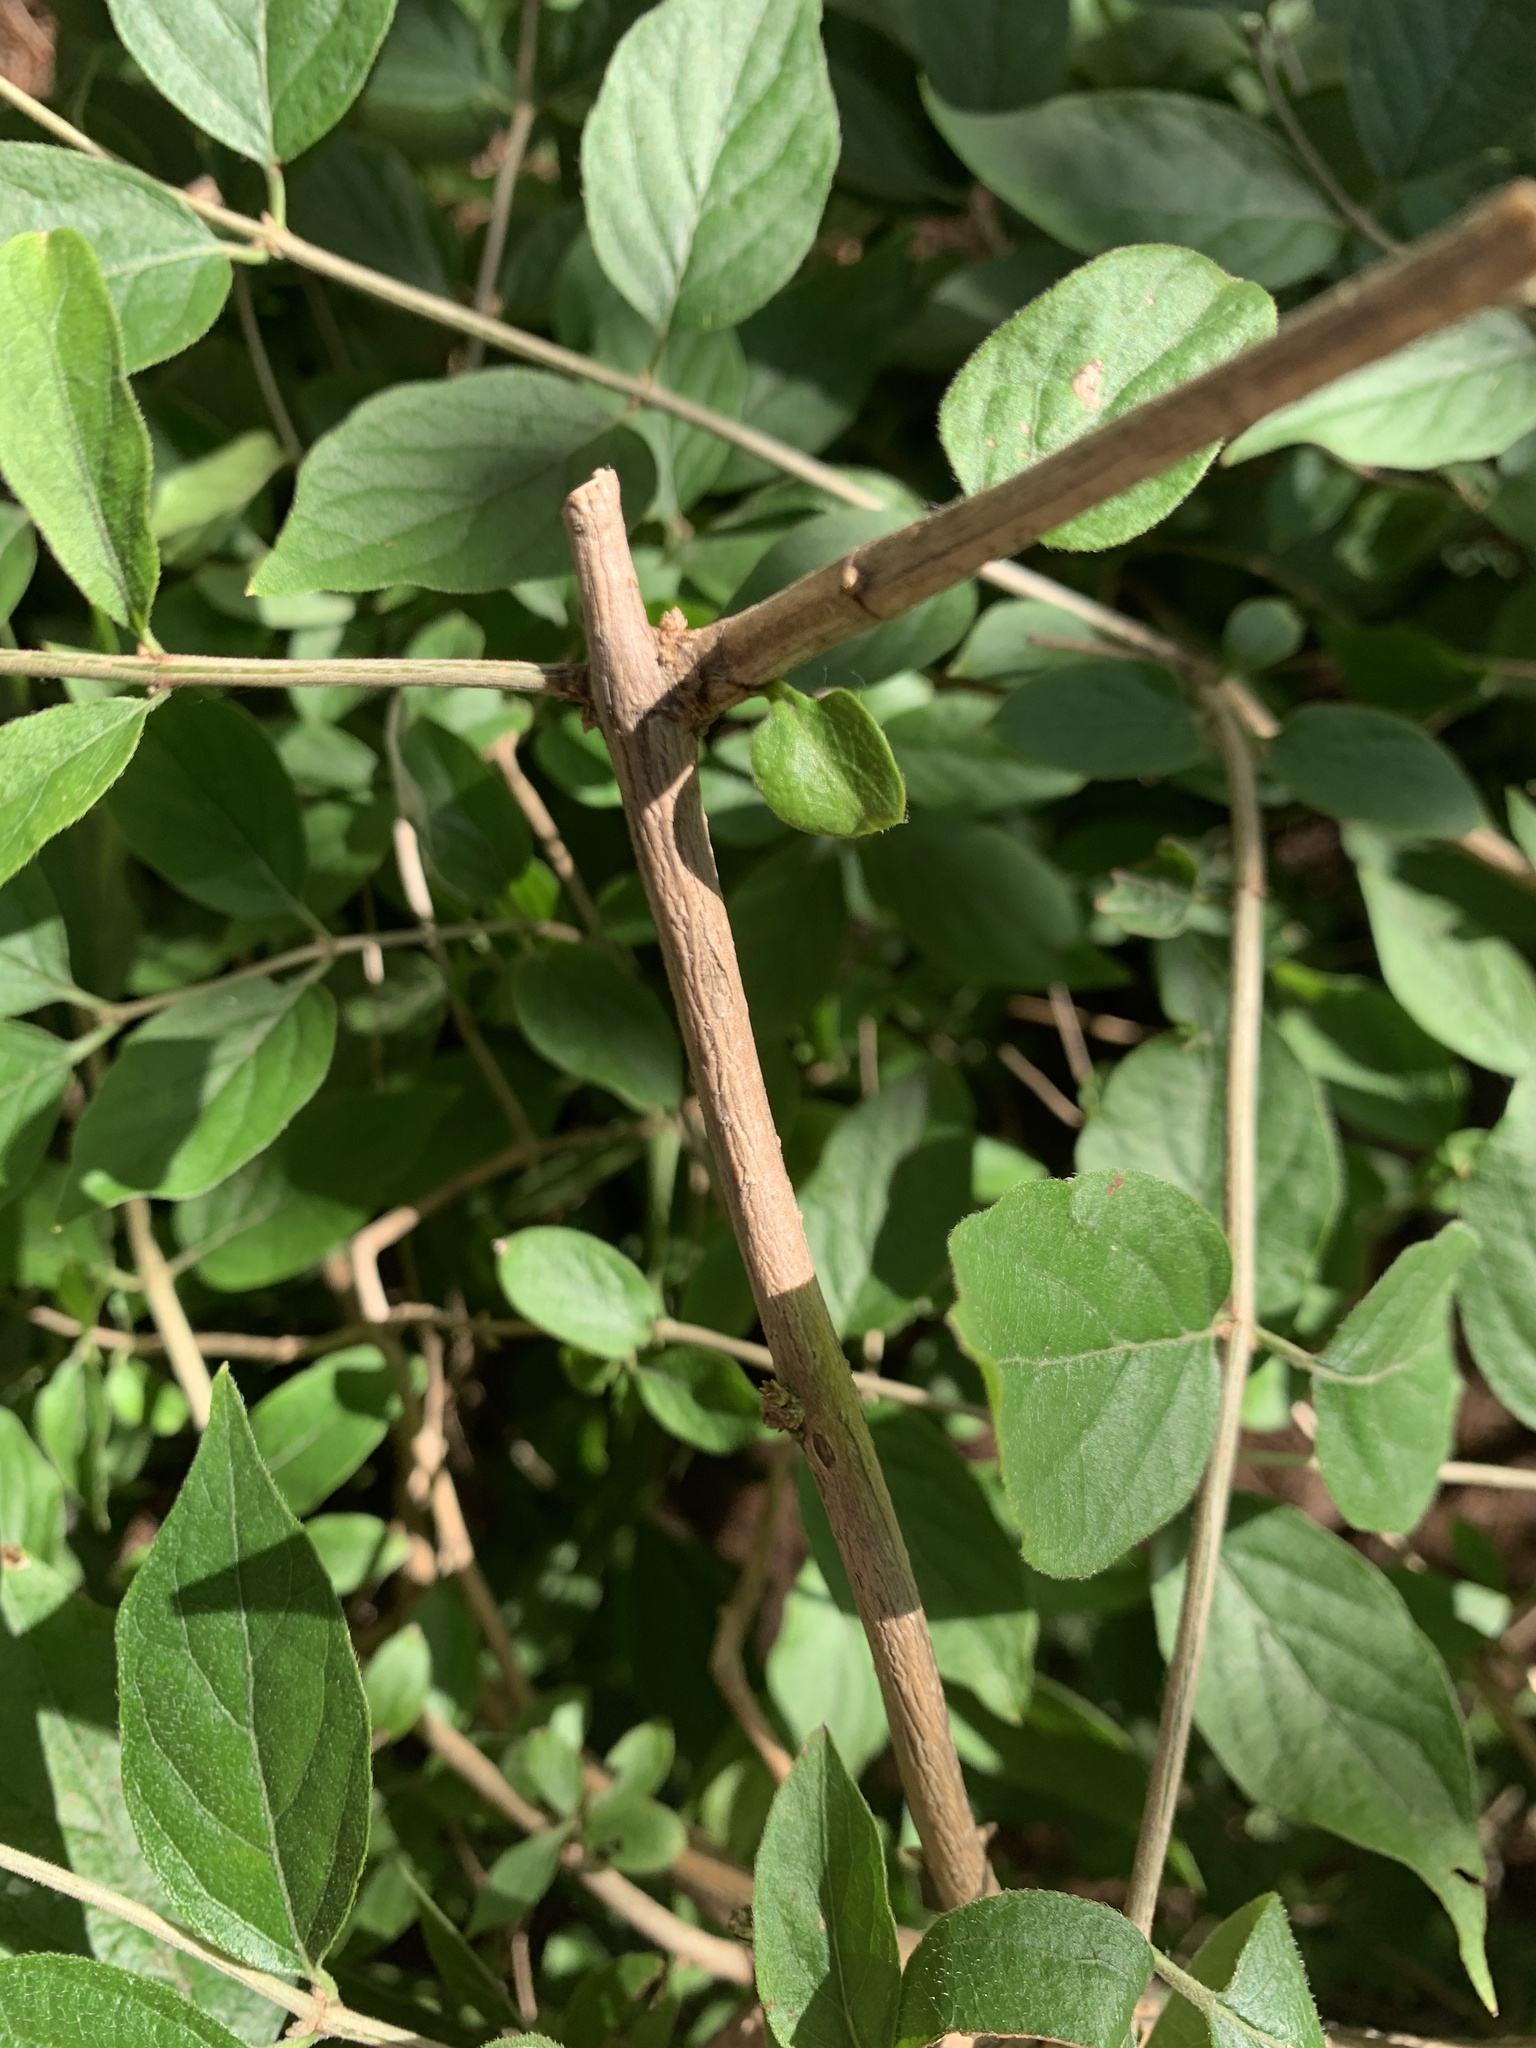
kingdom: Plantae
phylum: Tracheophyta
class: Magnoliopsida
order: Dipsacales
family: Caprifoliaceae
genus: Lonicera
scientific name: Lonicera maackii
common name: Amur honeysuckle
